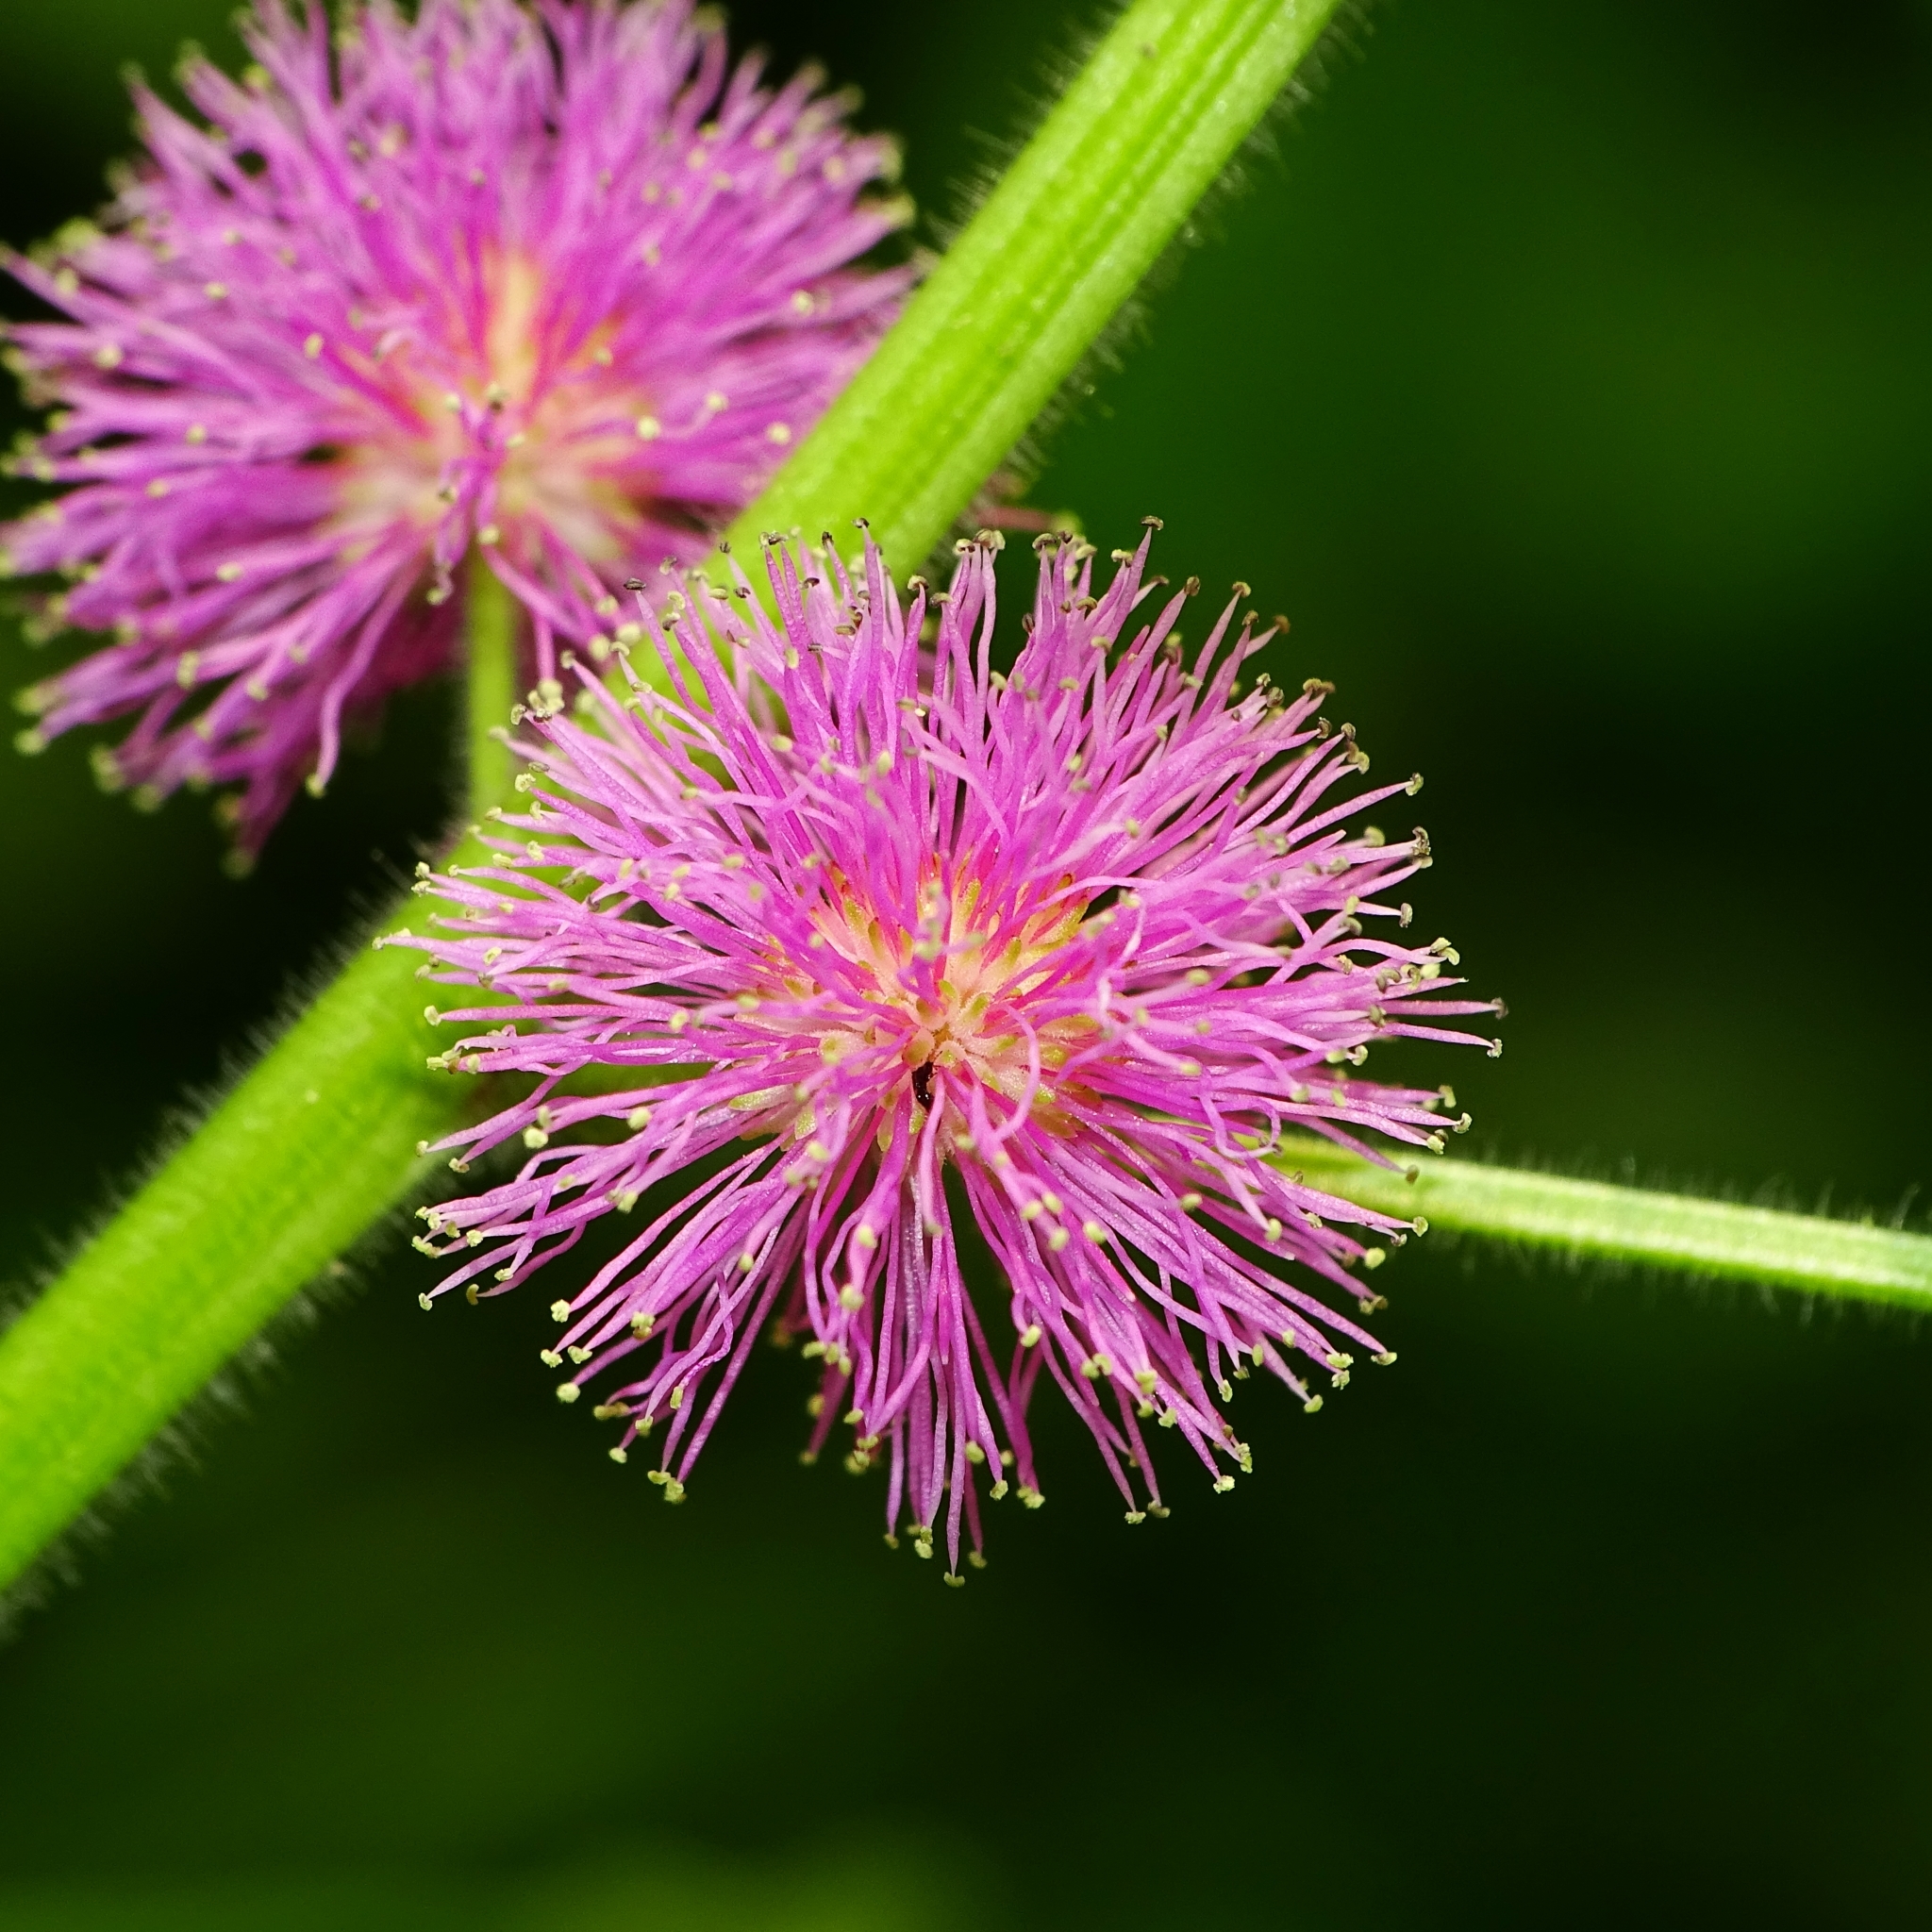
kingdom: Plantae
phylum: Tracheophyta
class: Magnoliopsida
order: Fabales
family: Fabaceae
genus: Mimosa
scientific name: Mimosa diplotricha
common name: Giant sensitive-plant
